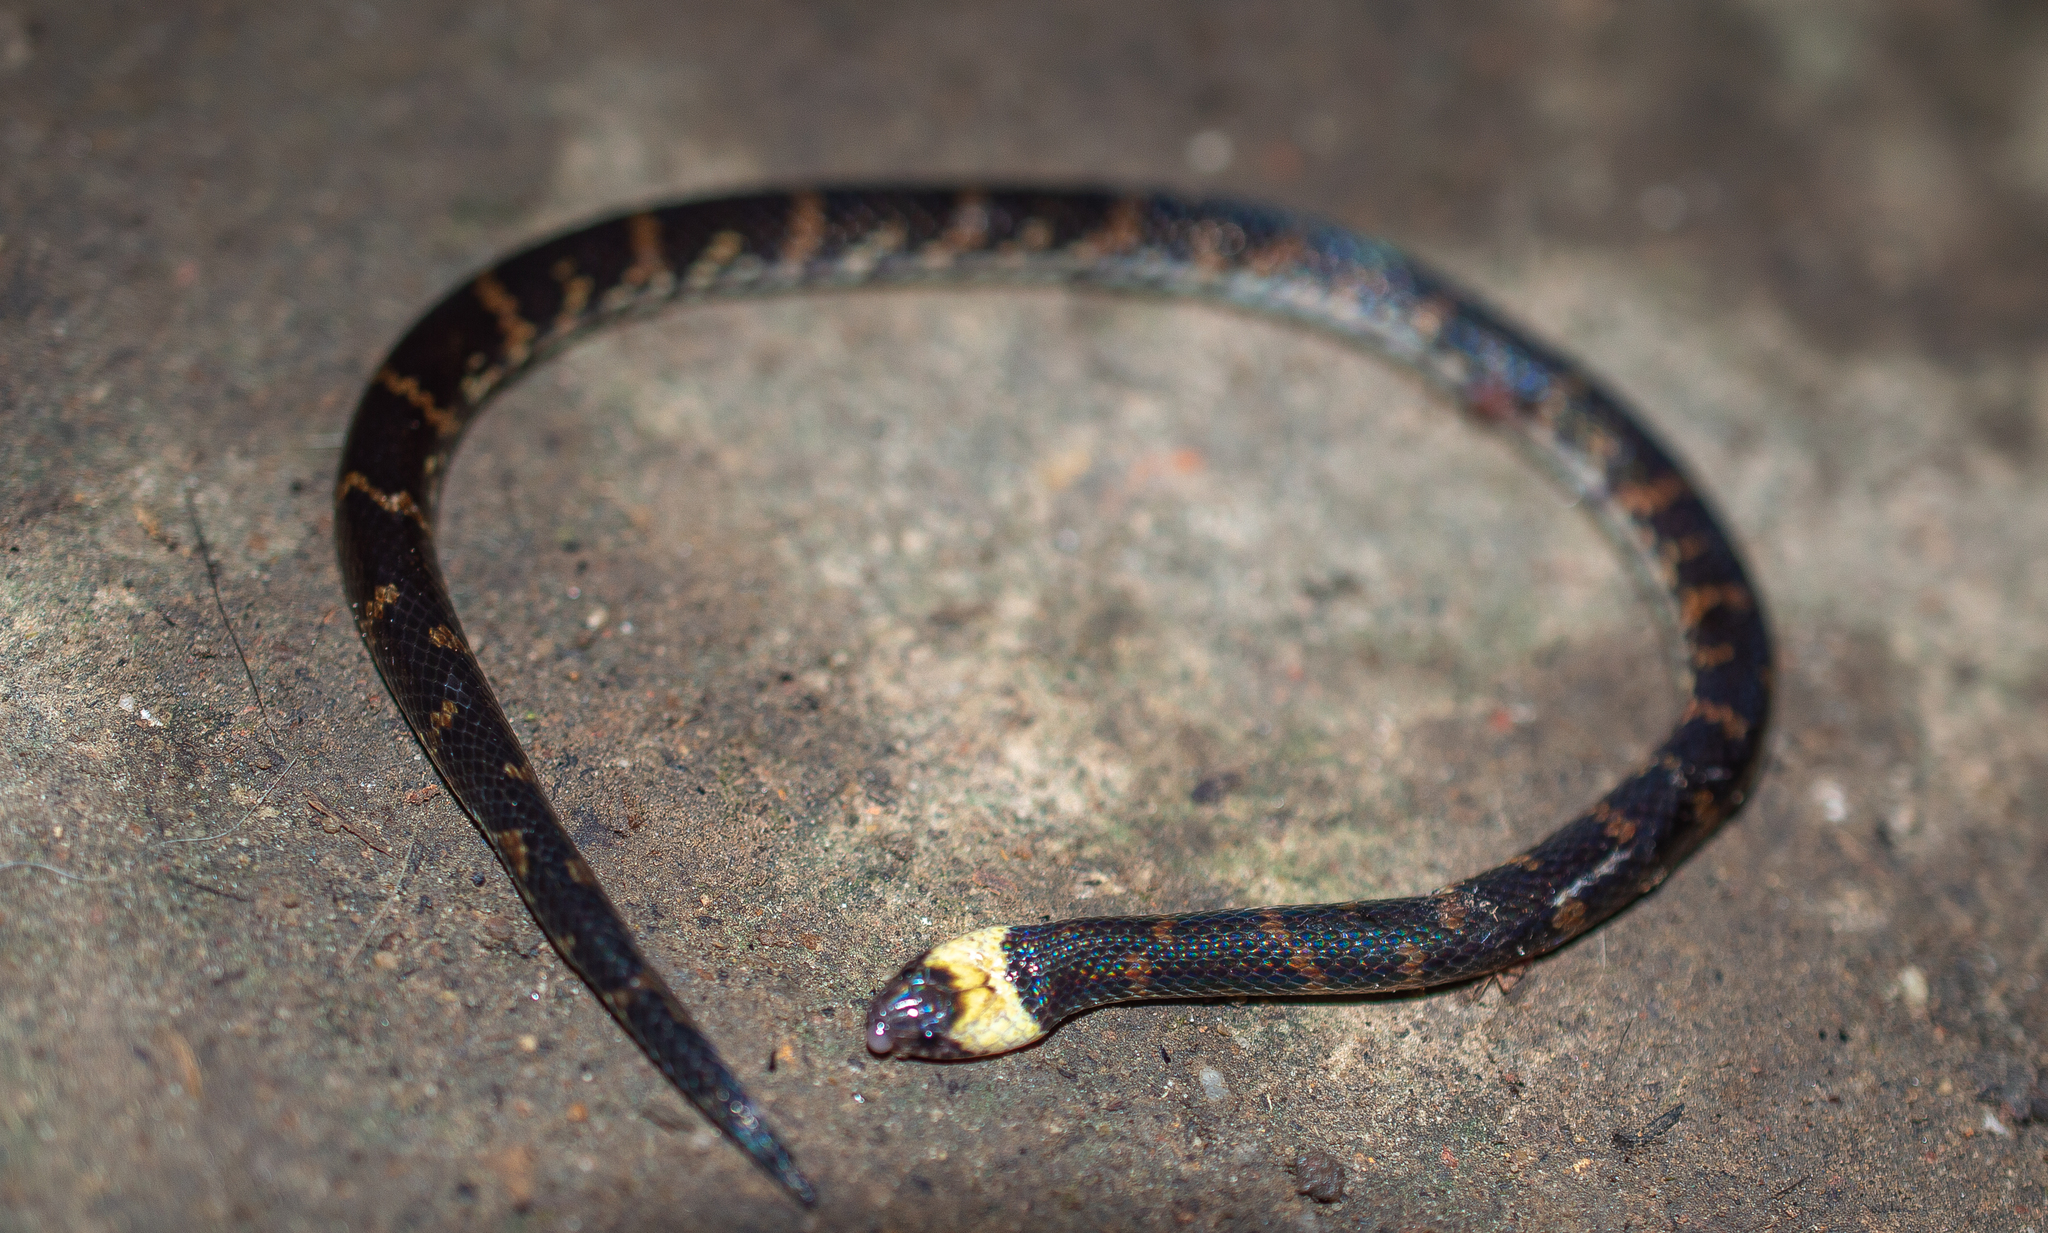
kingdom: Animalia
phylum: Chordata
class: Squamata
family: Colubridae
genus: Atractus
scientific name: Atractus snethlageae
